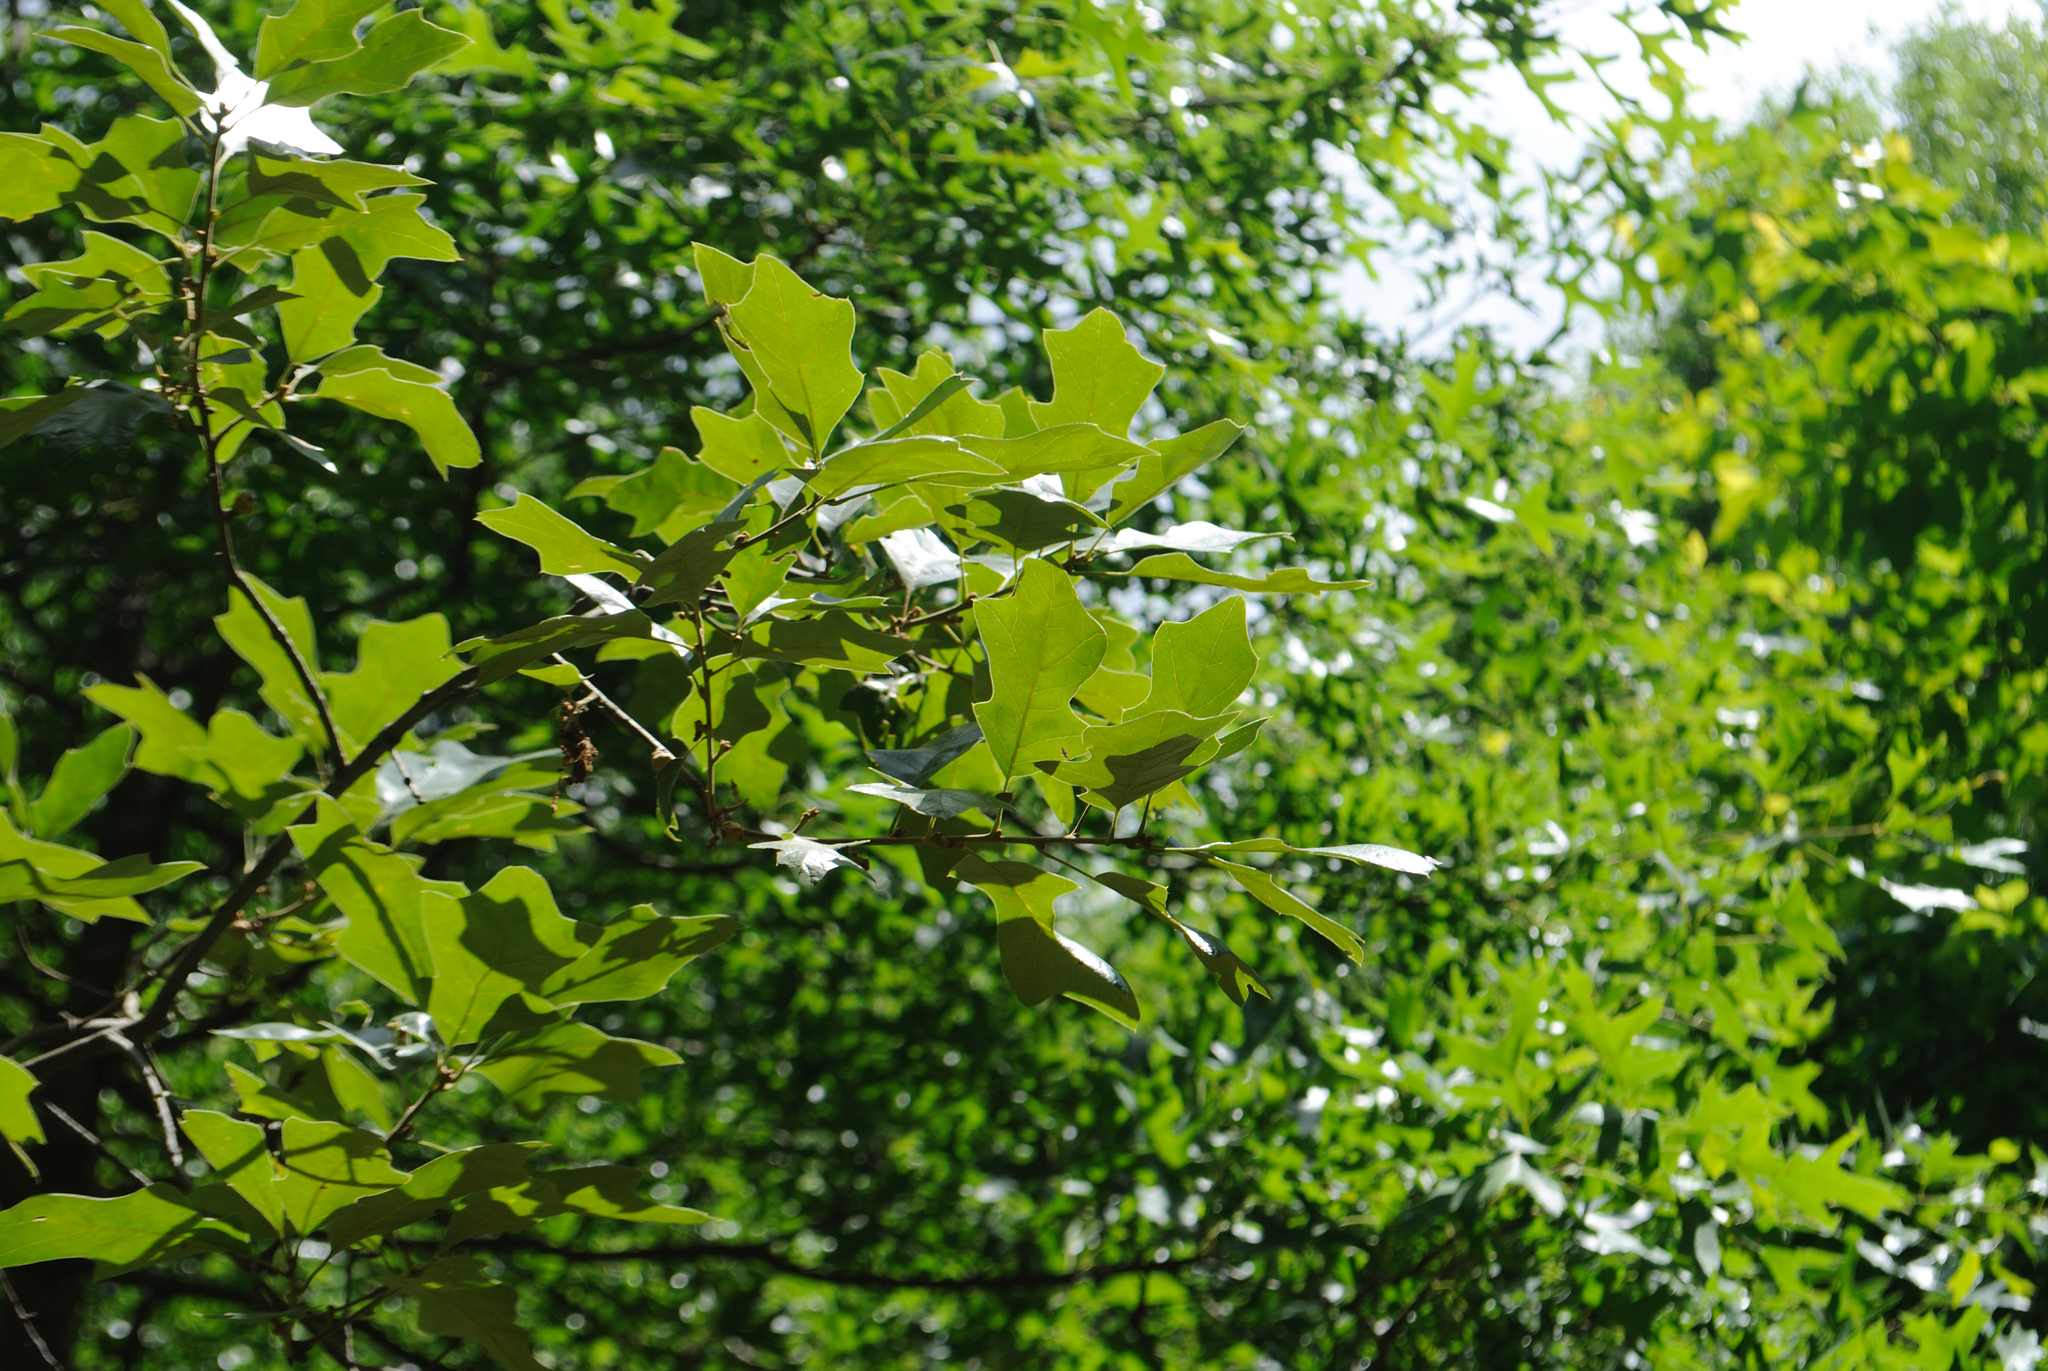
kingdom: Plantae
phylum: Tracheophyta
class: Magnoliopsida
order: Fagales
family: Fagaceae
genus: Quercus
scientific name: Quercus ilicifolia
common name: Bear oak
